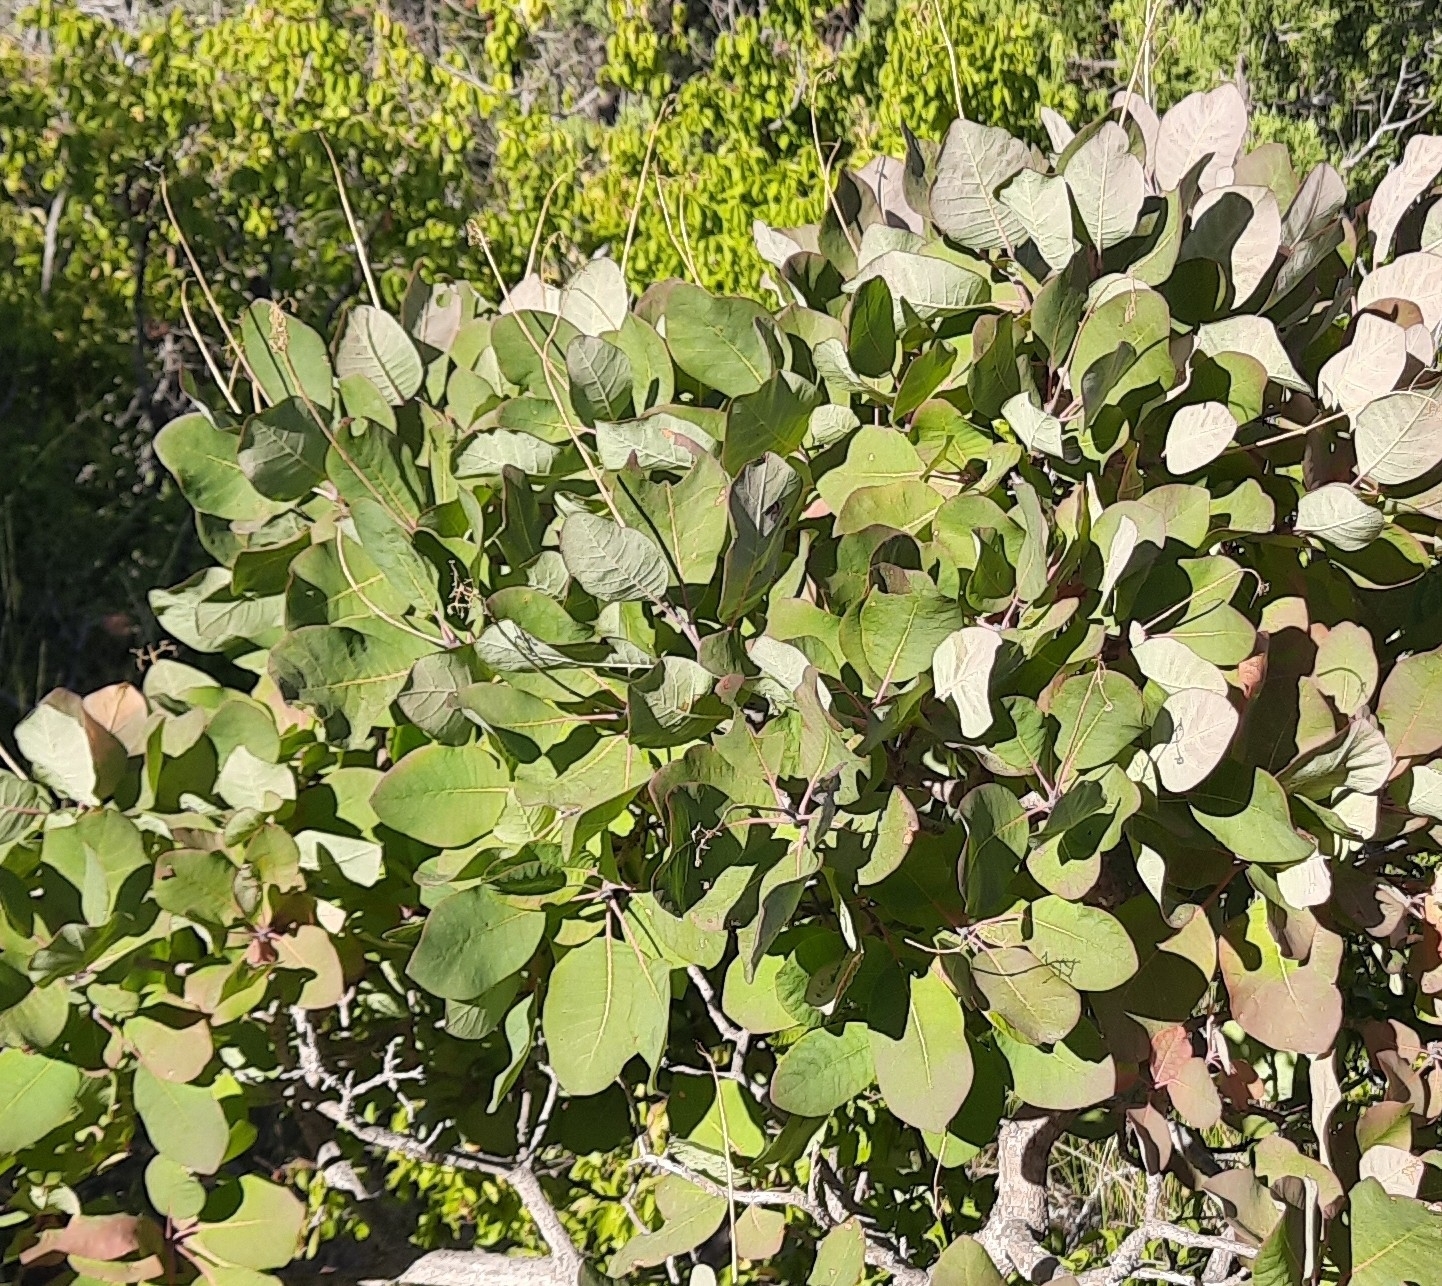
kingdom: Plantae
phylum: Tracheophyta
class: Magnoliopsida
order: Sapindales
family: Anacardiaceae
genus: Cotinus
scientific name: Cotinus coggygria
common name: Smoke-tree
